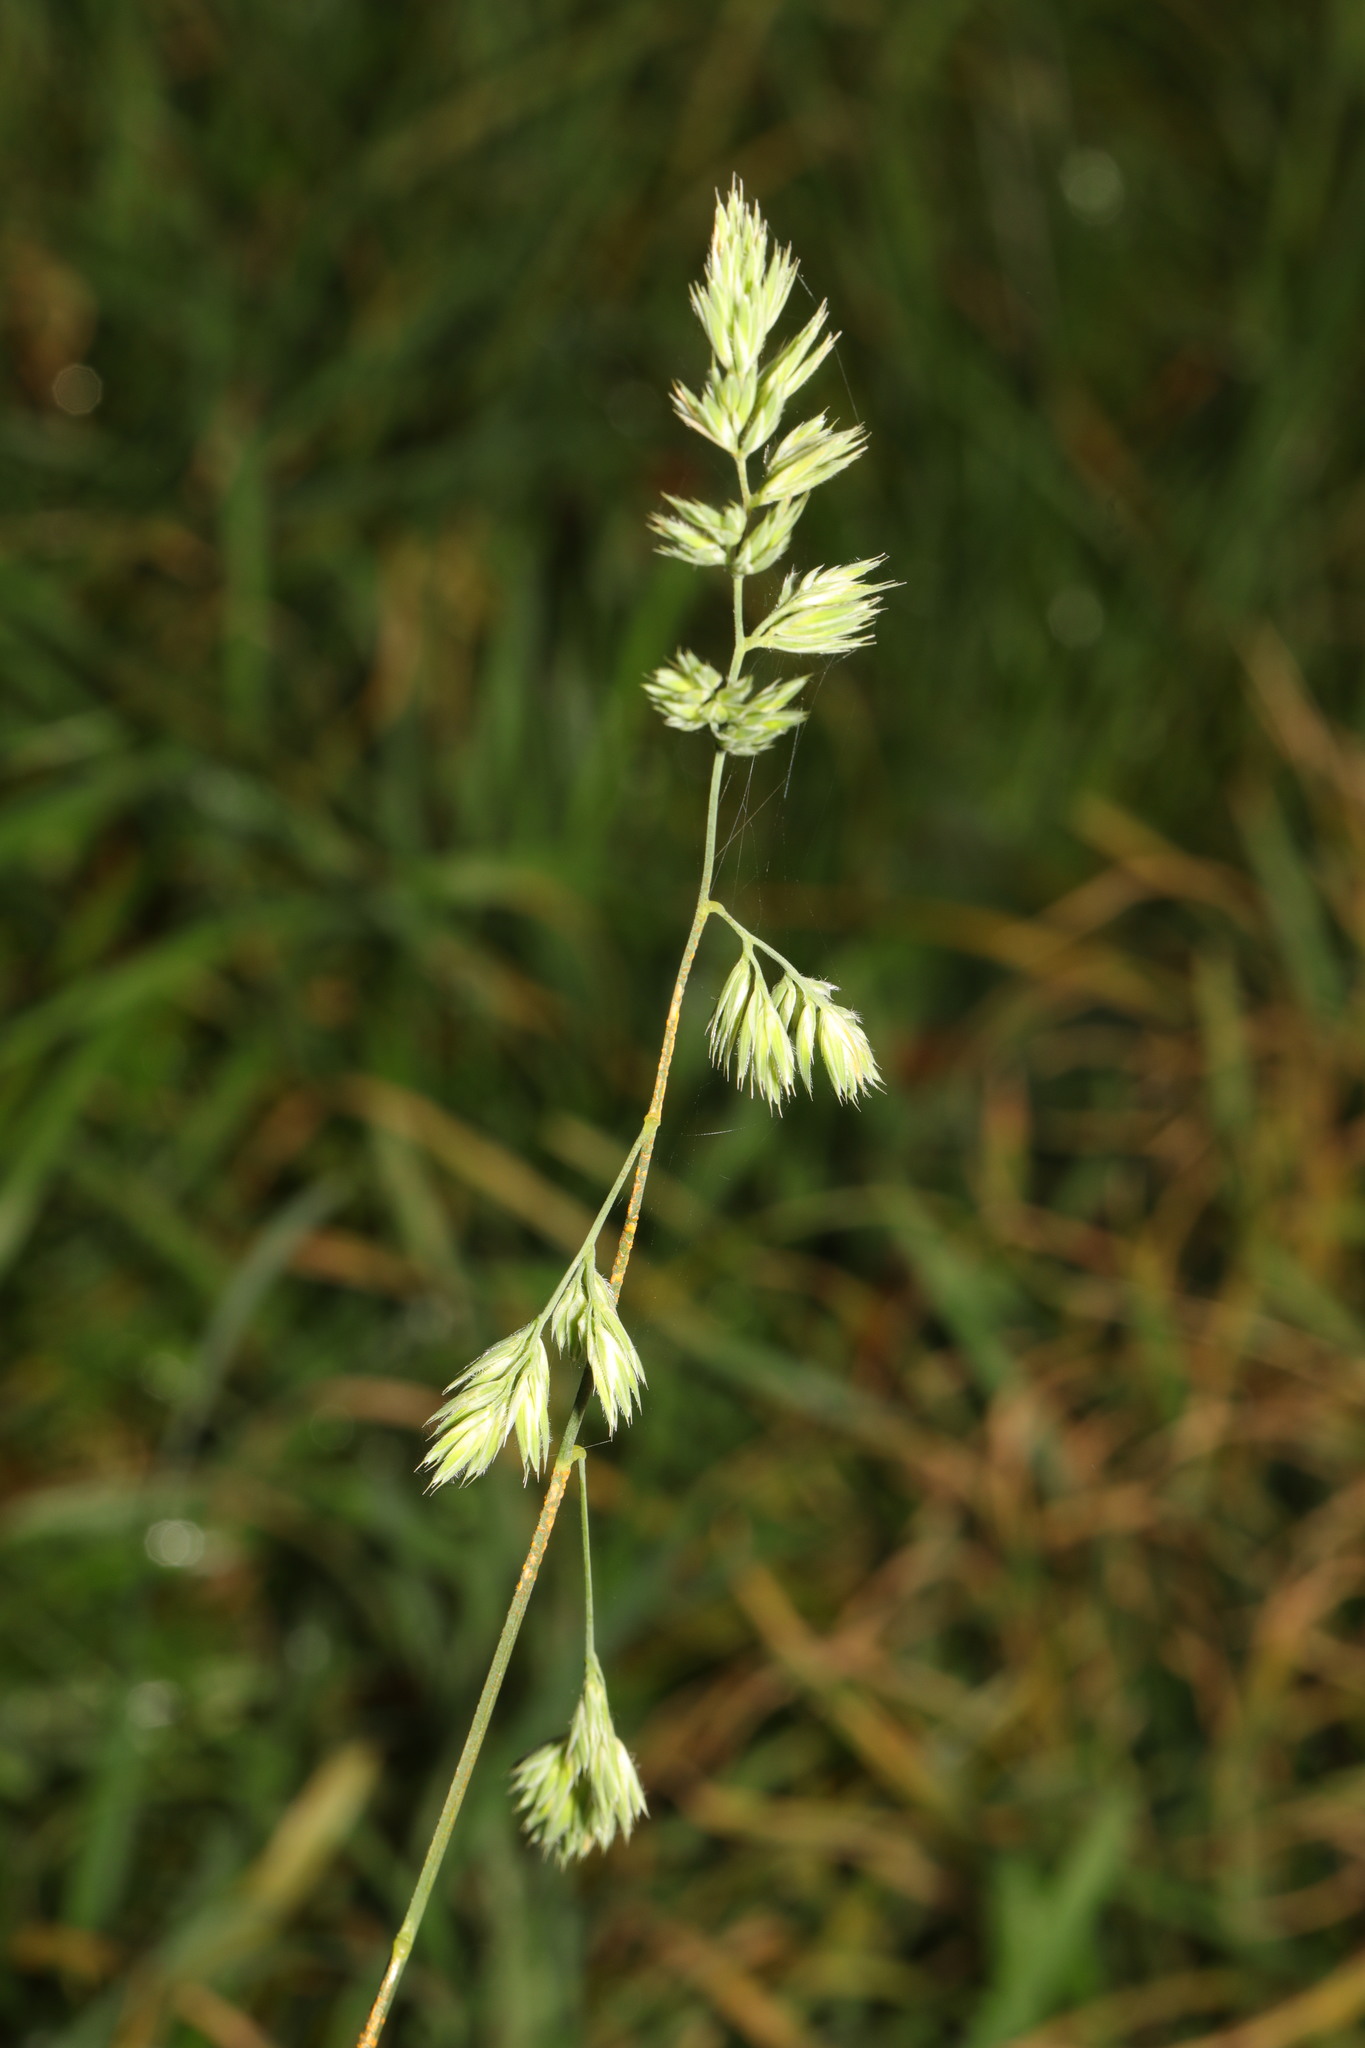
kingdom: Plantae
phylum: Tracheophyta
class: Liliopsida
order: Poales
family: Poaceae
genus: Dactylis
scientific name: Dactylis glomerata
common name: Orchardgrass
